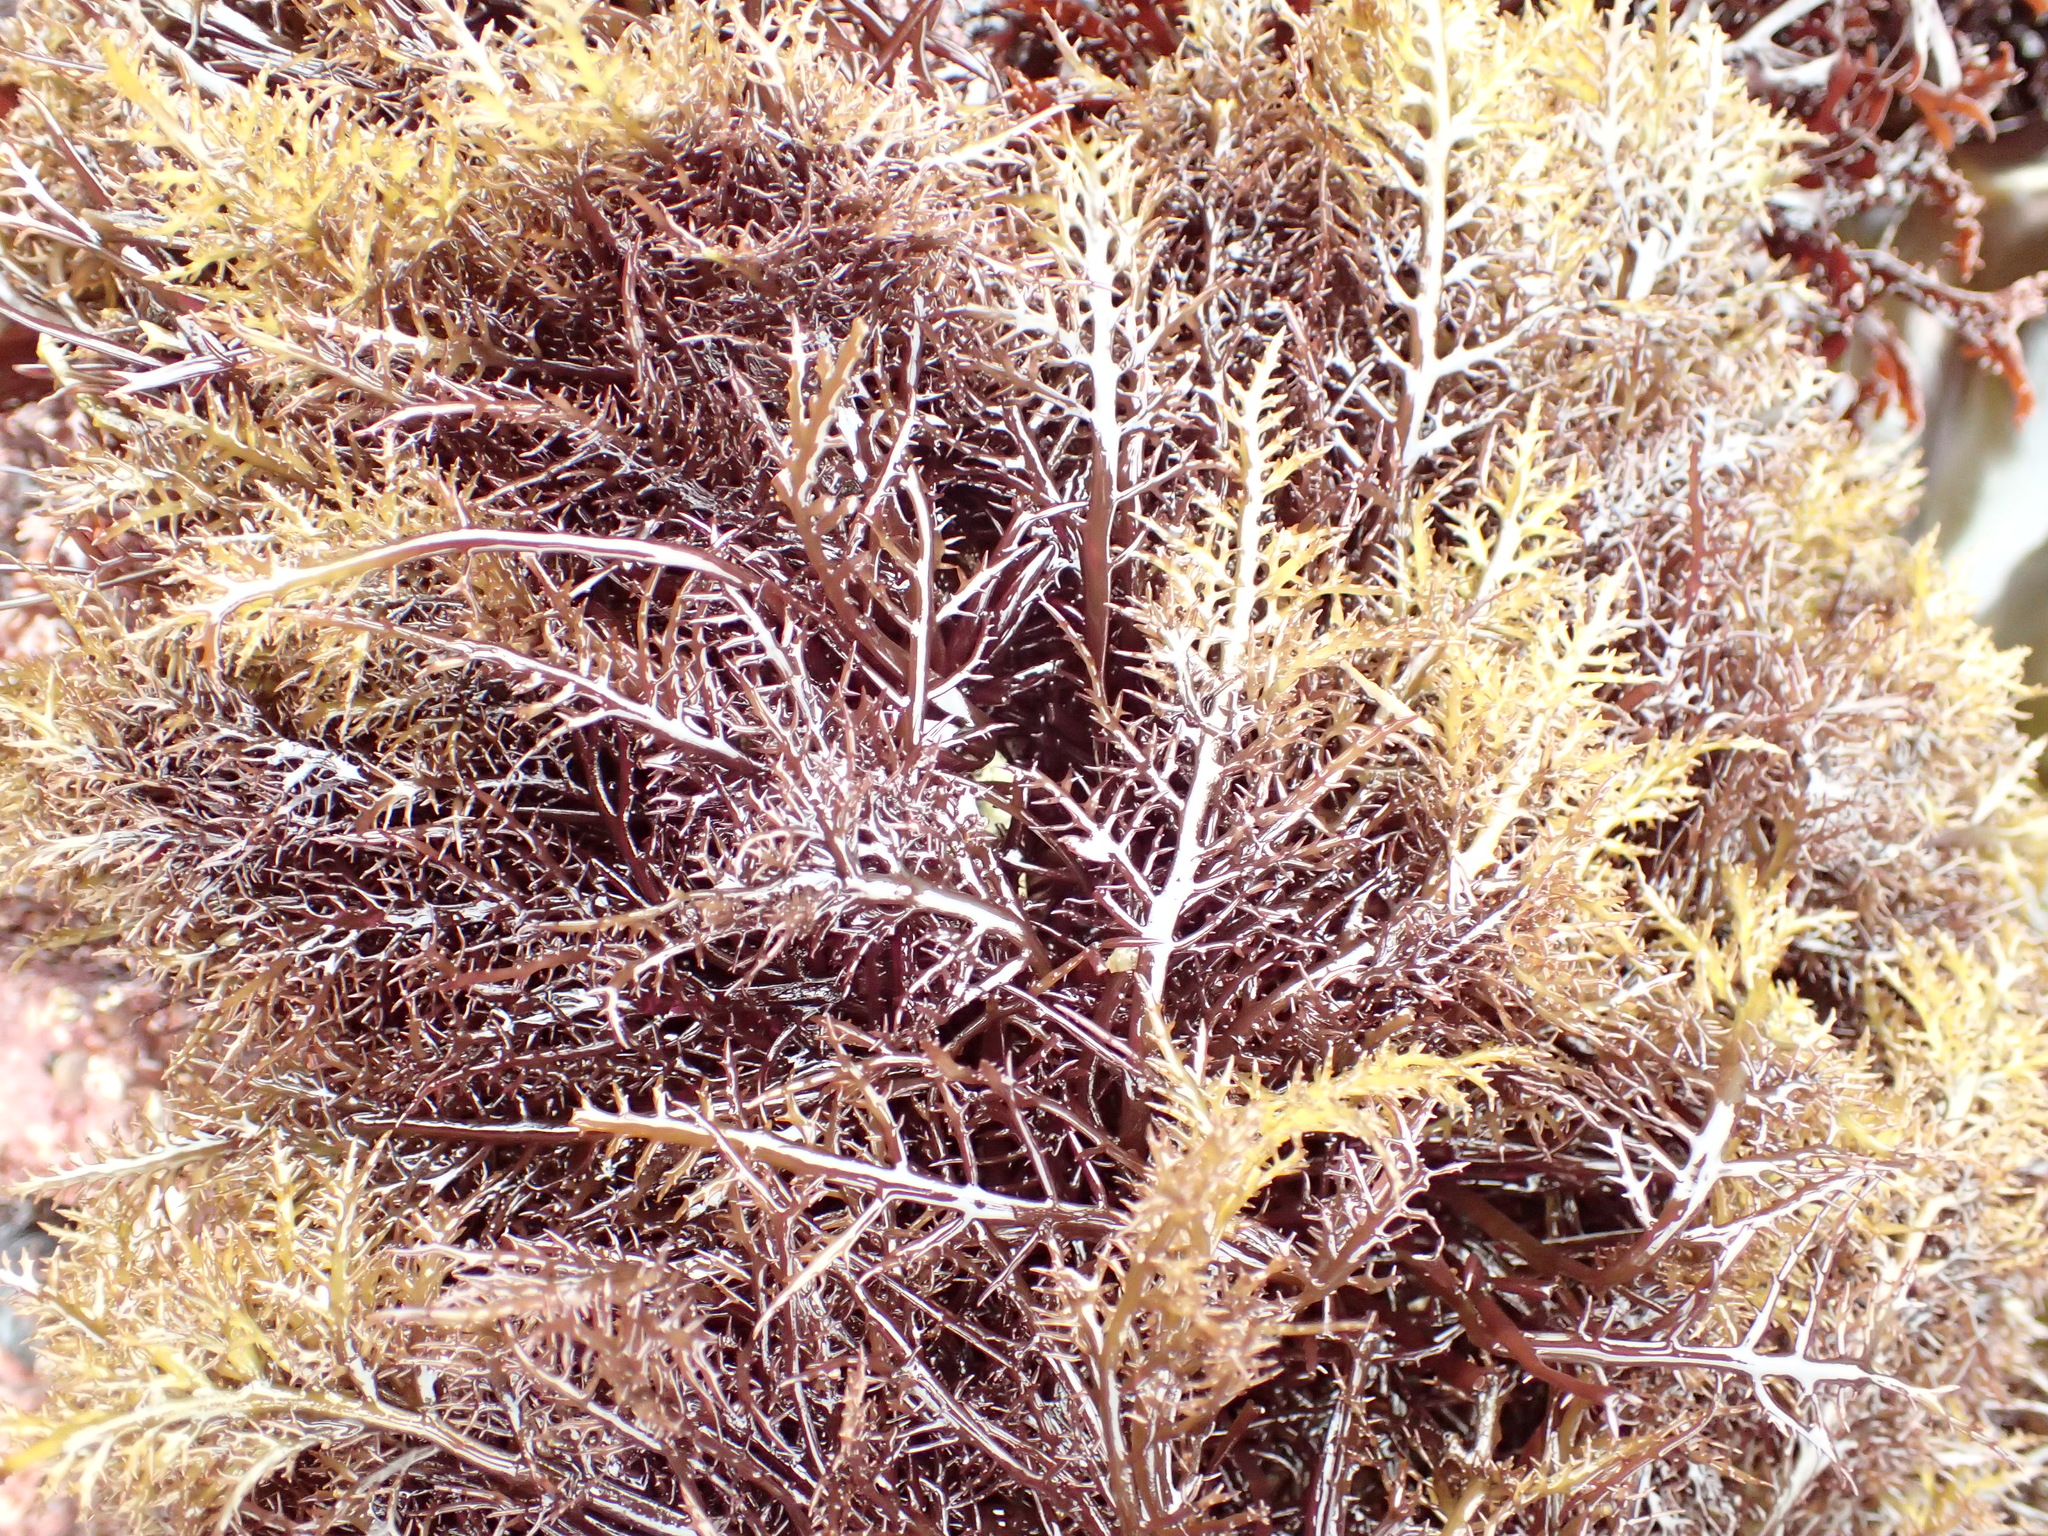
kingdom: Plantae
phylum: Rhodophyta
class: Florideophyceae
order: Gigartinales
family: Gigartinaceae
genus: Chondracanthus
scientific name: Chondracanthus canaliculatus
